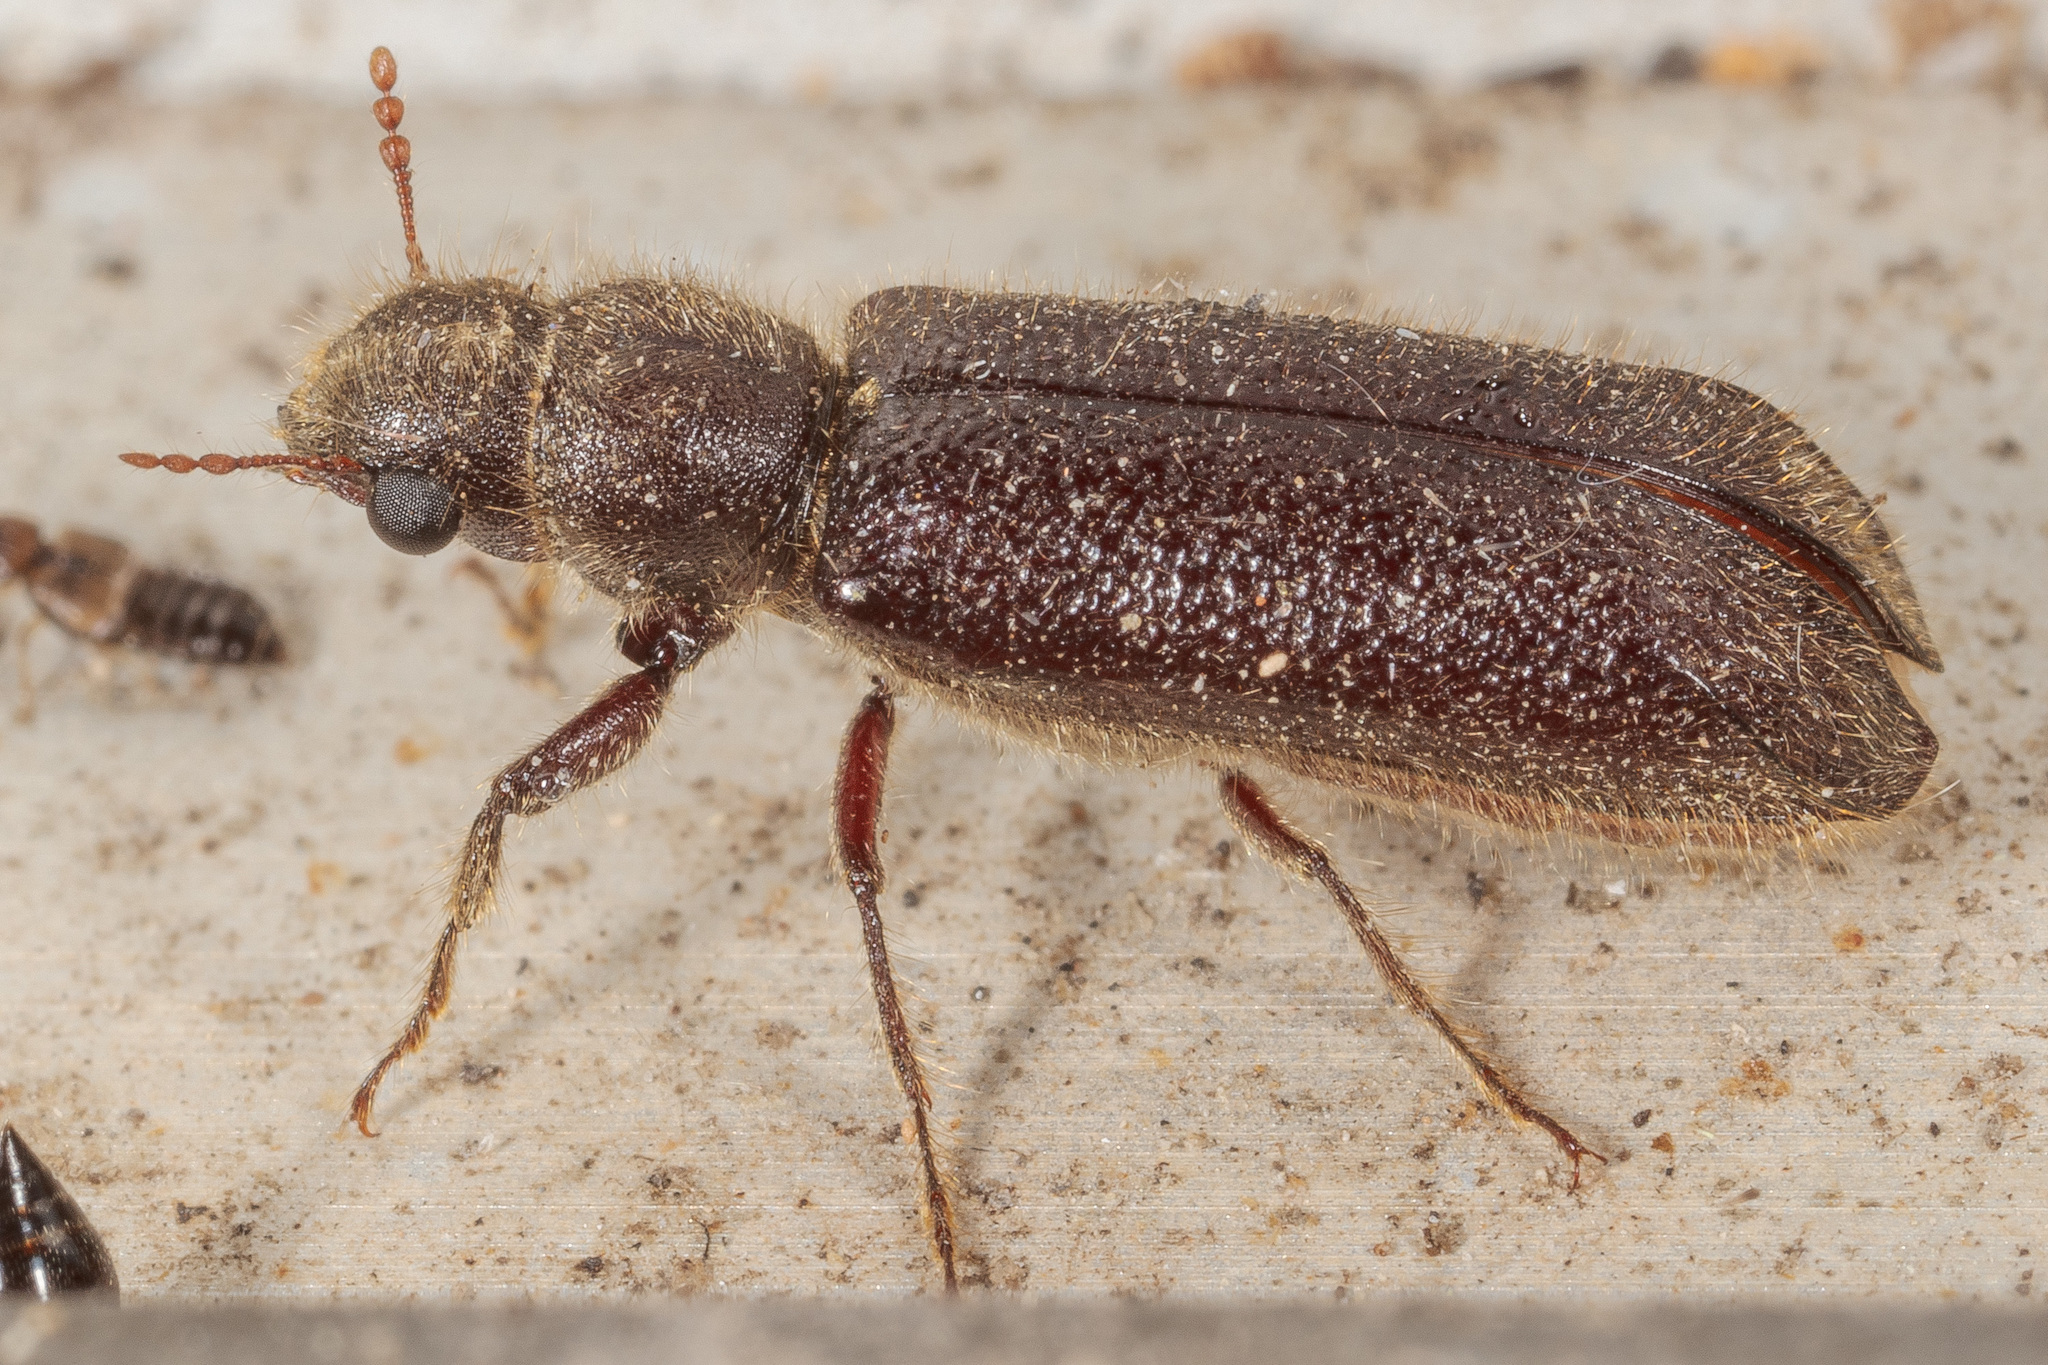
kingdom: Animalia
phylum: Arthropoda
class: Insecta
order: Coleoptera
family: Bostrichidae
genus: Melalgus
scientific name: Melalgus plicatus
